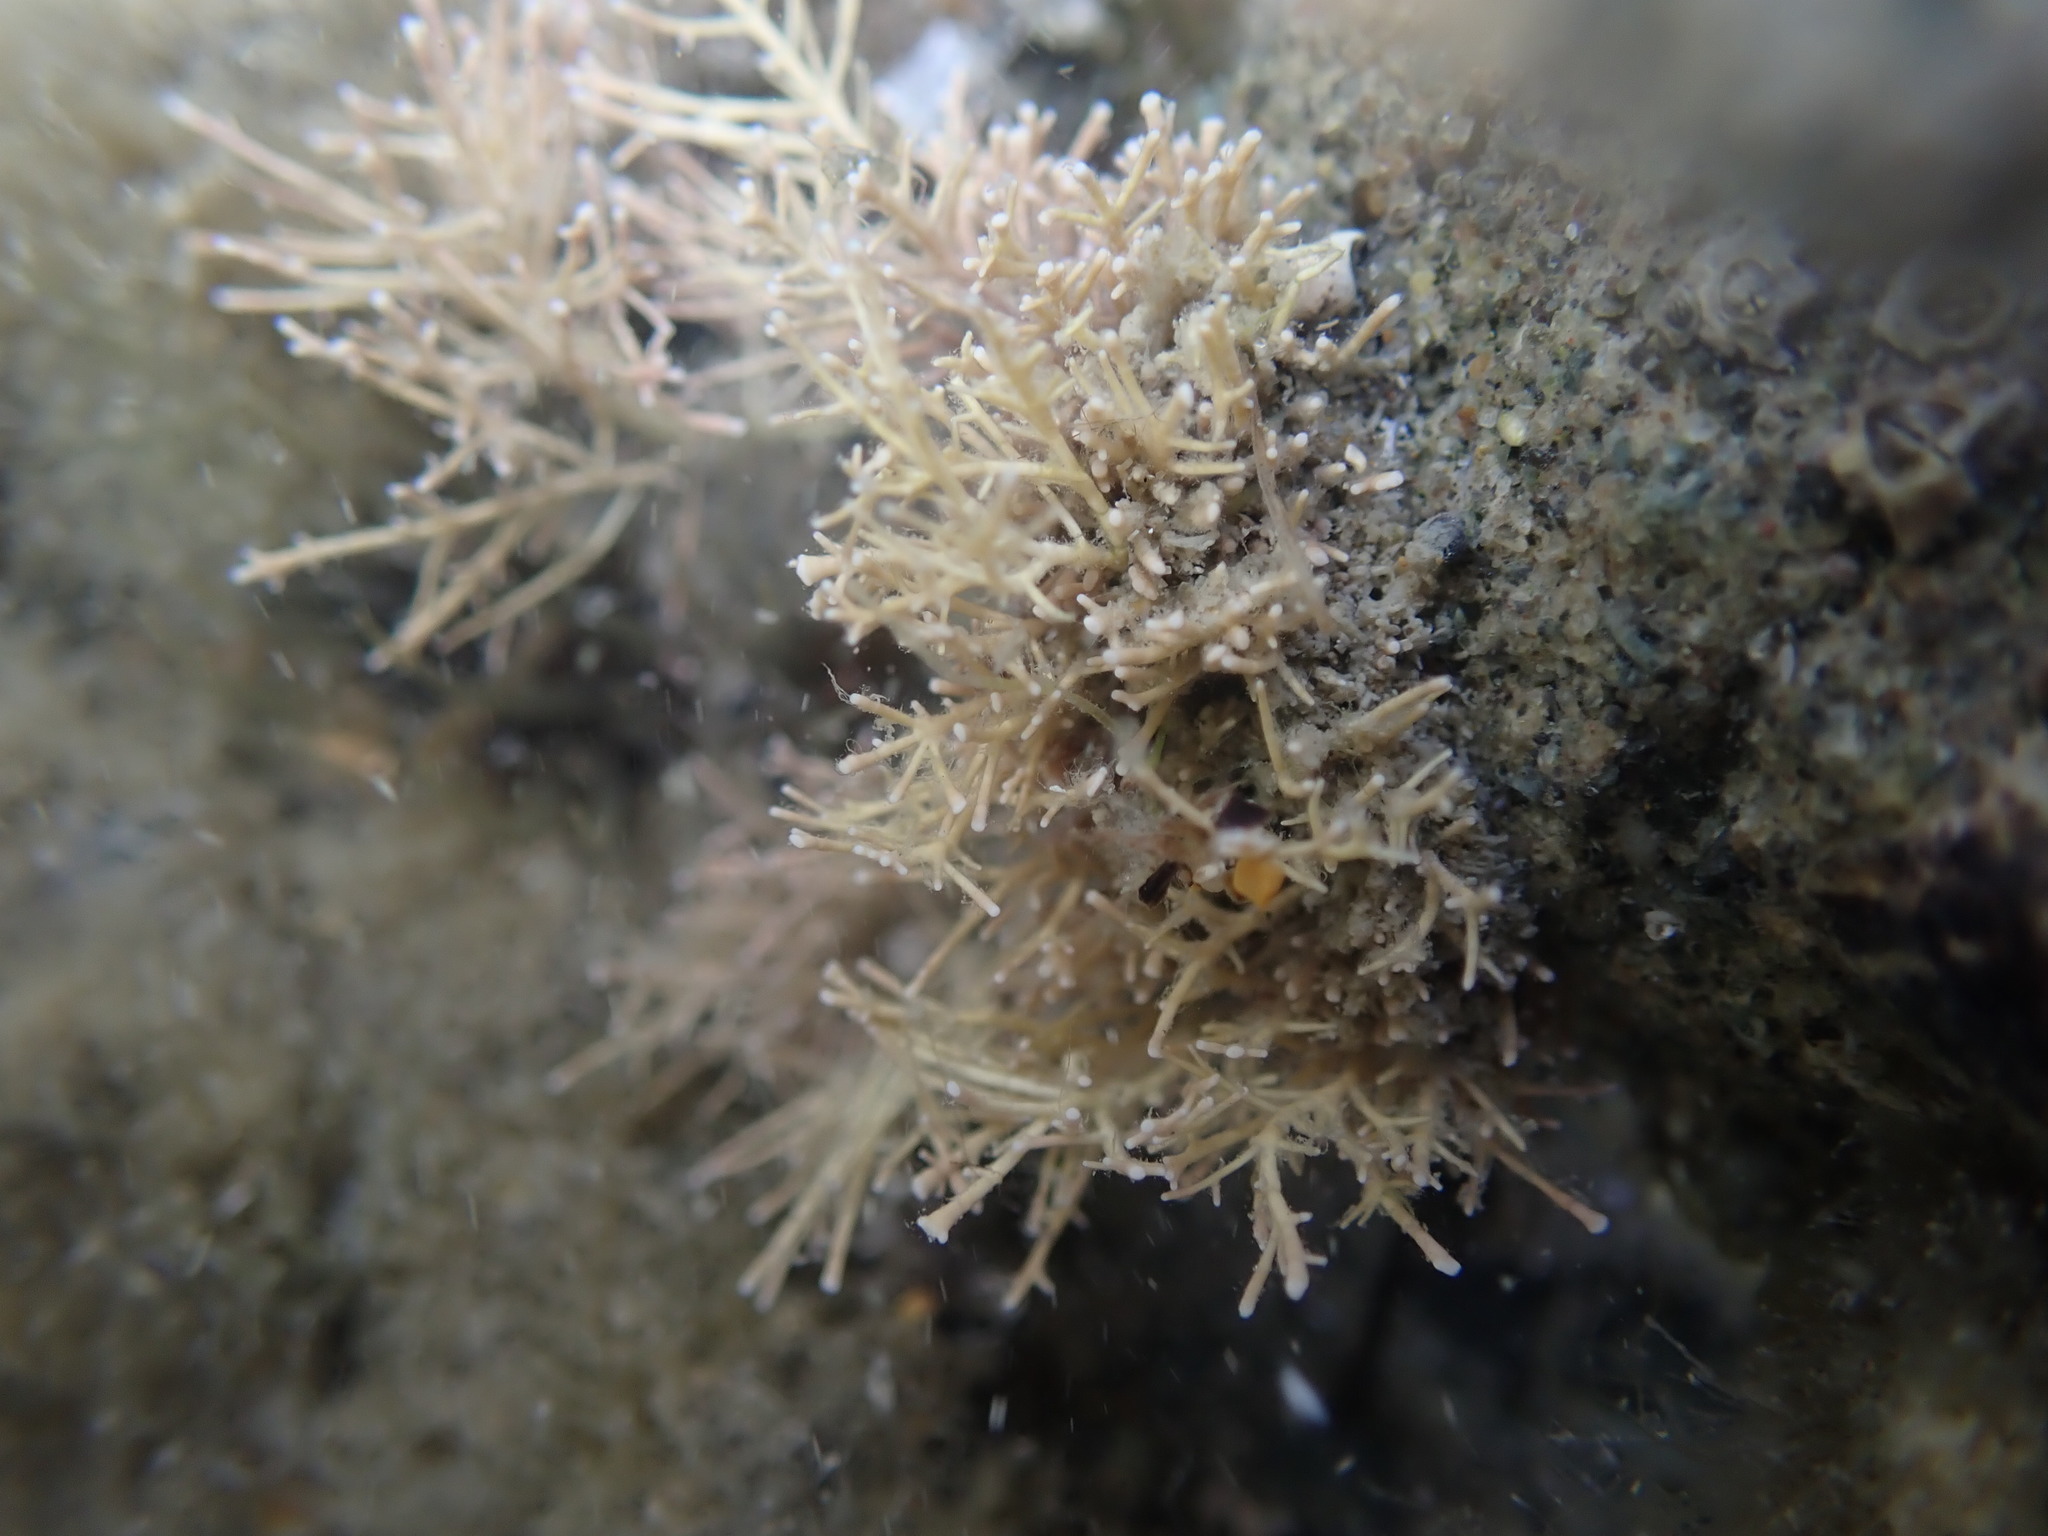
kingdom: Plantae
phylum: Rhodophyta
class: Florideophyceae
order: Corallinales
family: Corallinaceae
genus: Corallina
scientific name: Corallina officinalis
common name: Coral weed
